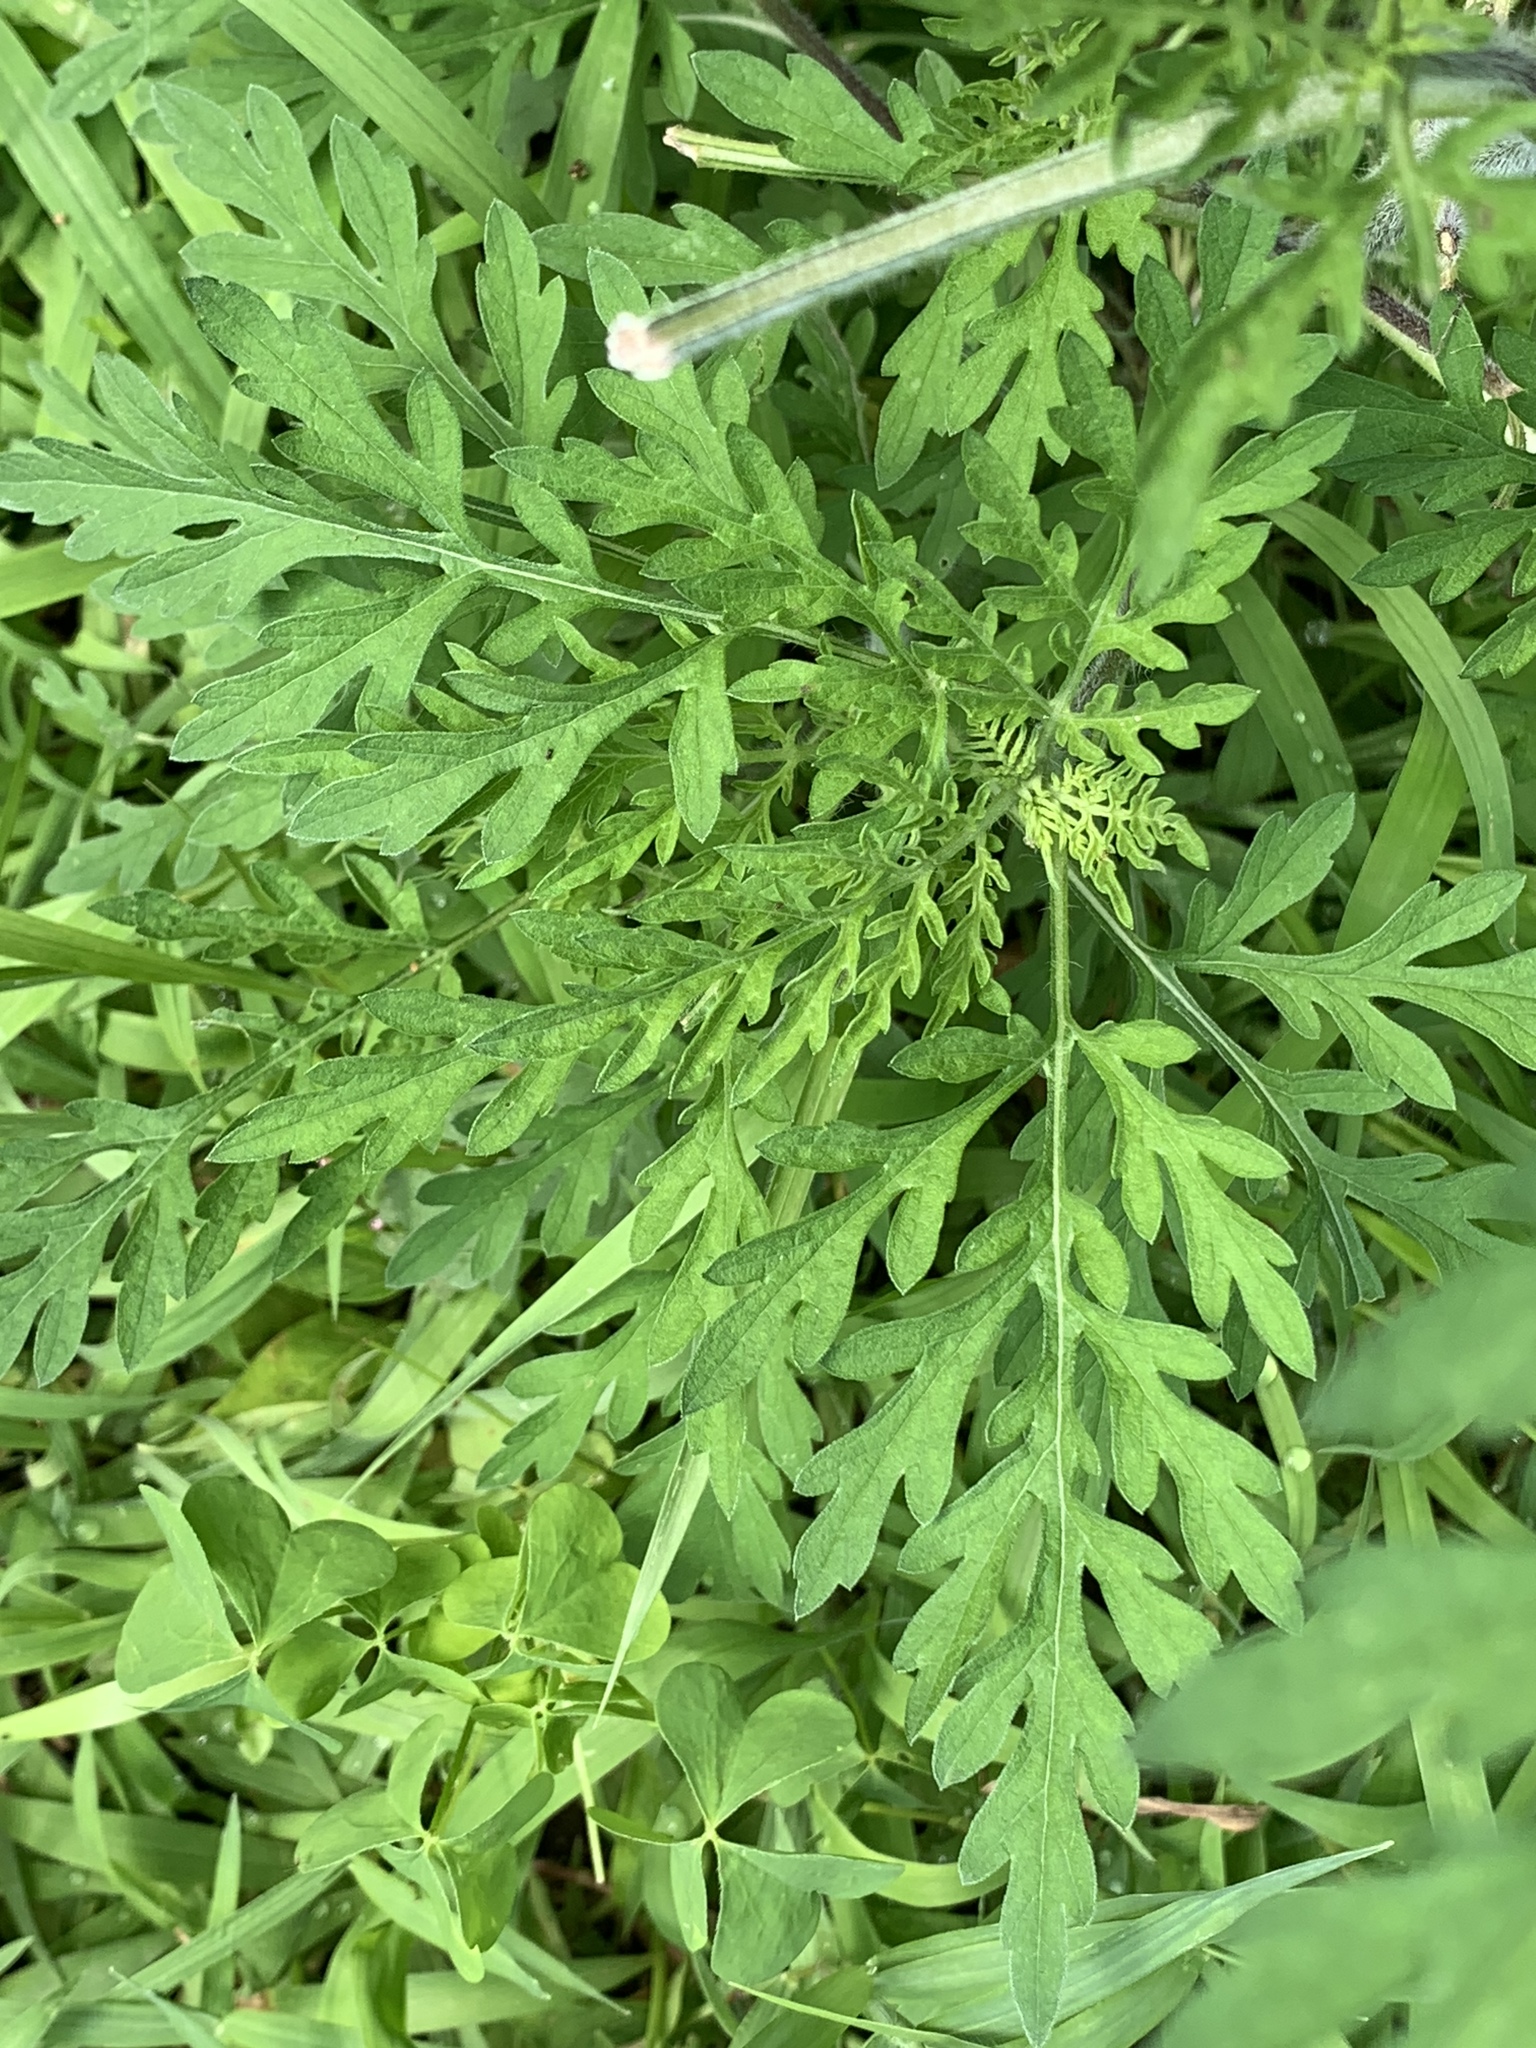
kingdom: Plantae
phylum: Tracheophyta
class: Magnoliopsida
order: Asterales
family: Asteraceae
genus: Ambrosia
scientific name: Ambrosia artemisiifolia
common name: Annual ragweed
